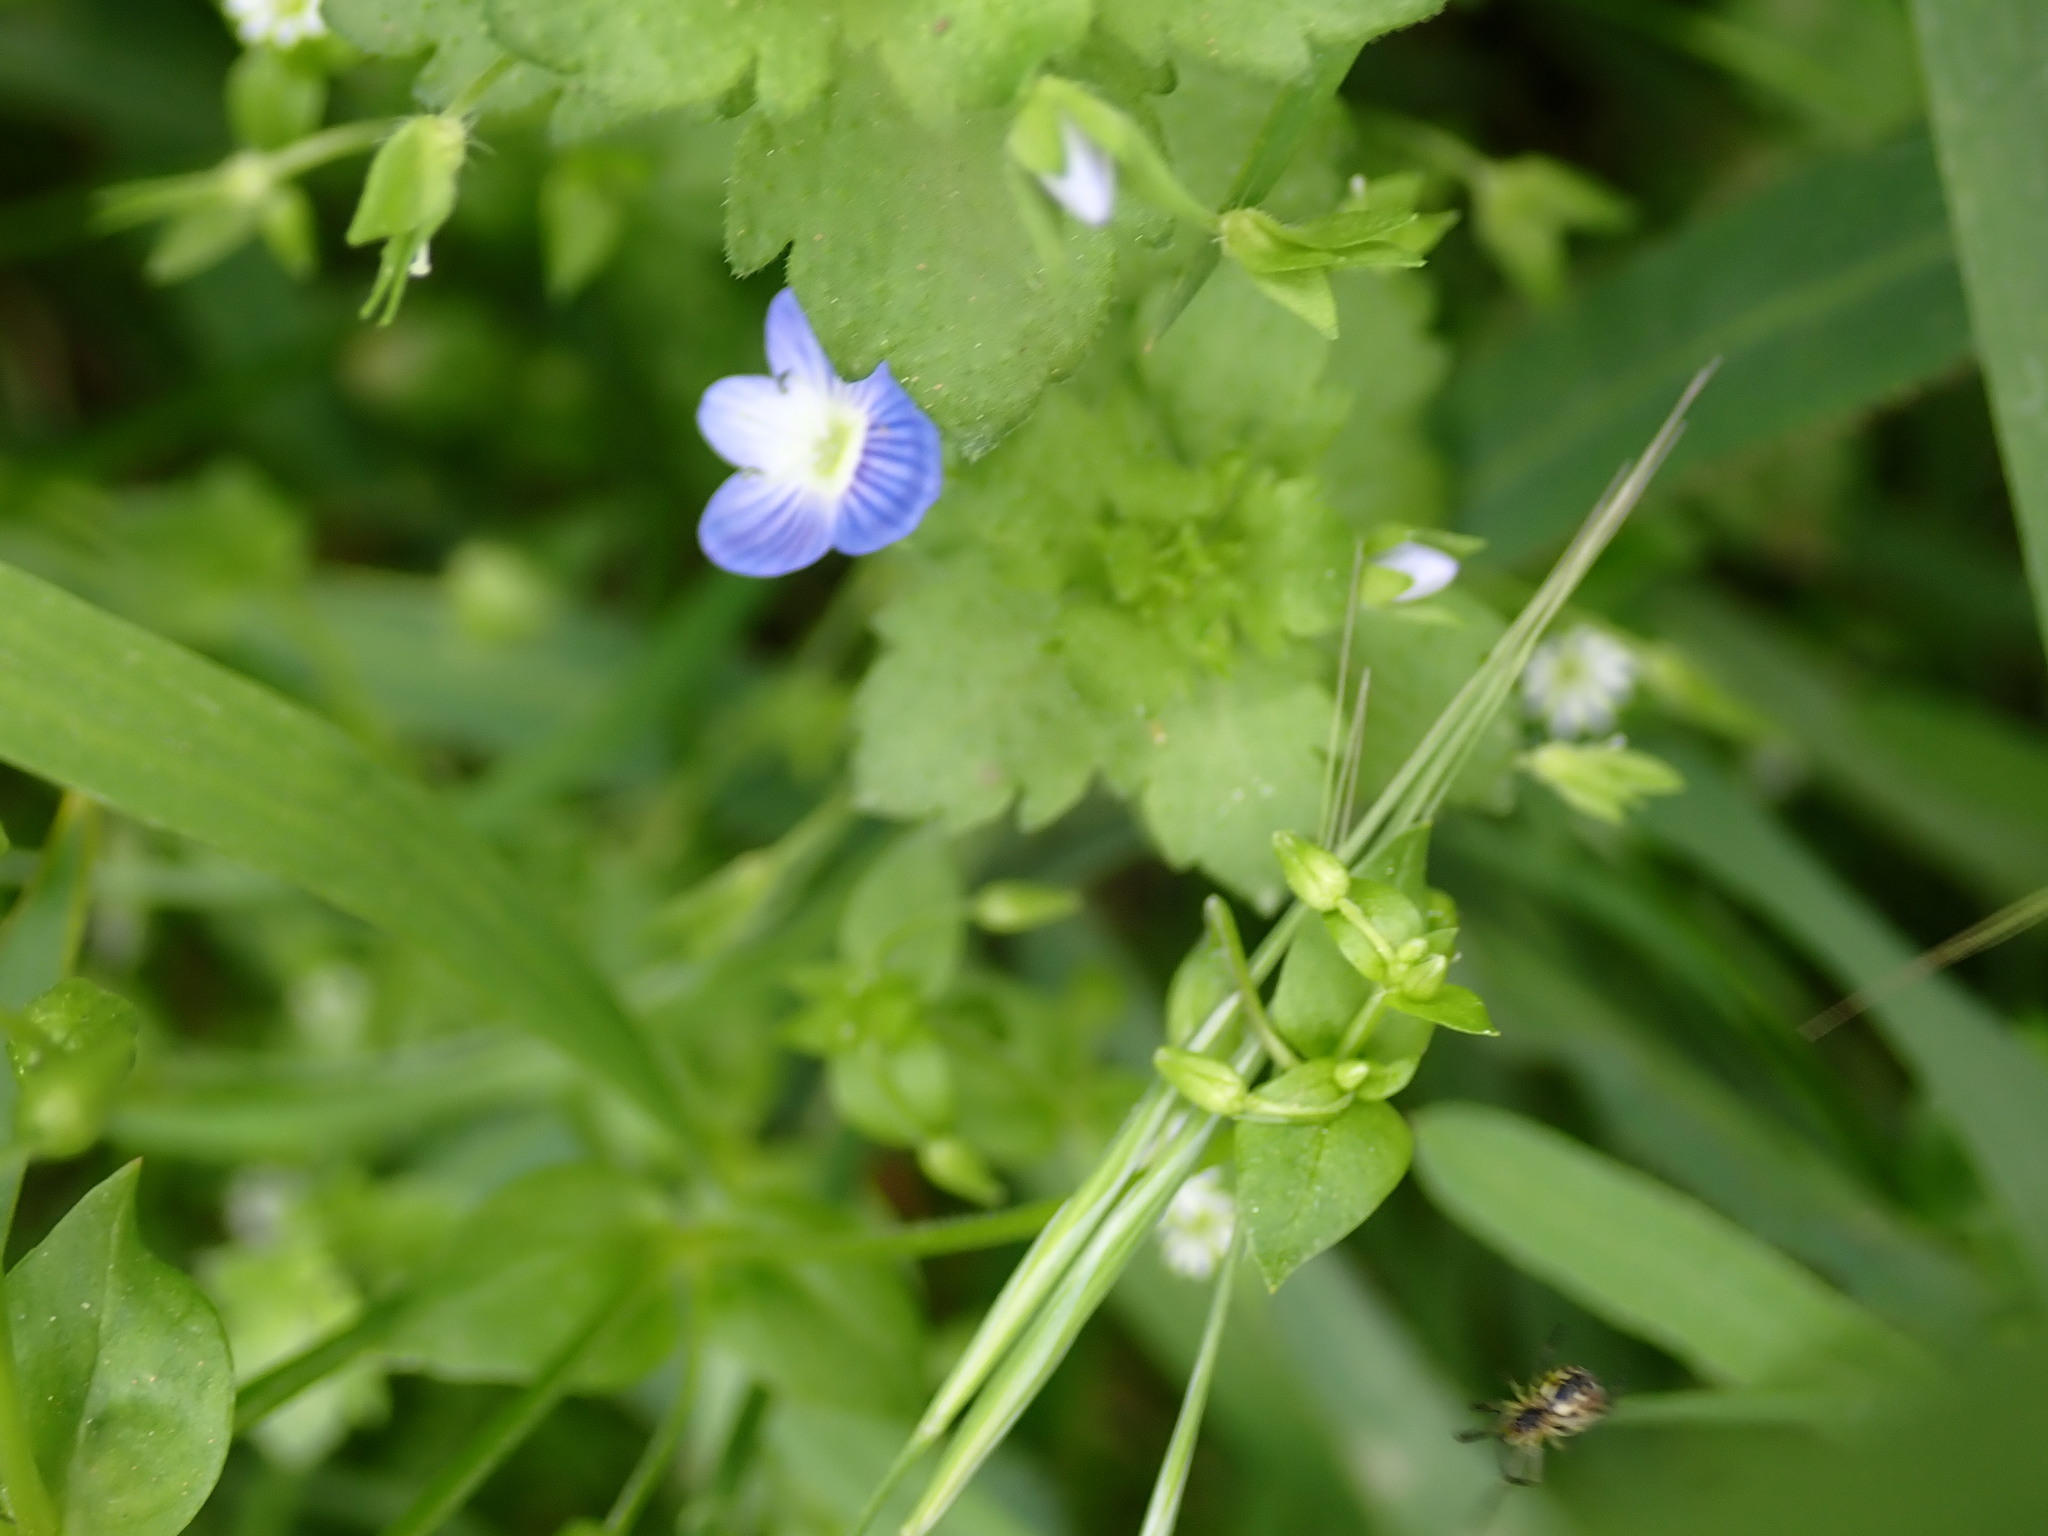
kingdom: Plantae
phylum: Tracheophyta
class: Magnoliopsida
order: Lamiales
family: Plantaginaceae
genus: Veronica
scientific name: Veronica persica
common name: Common field-speedwell
